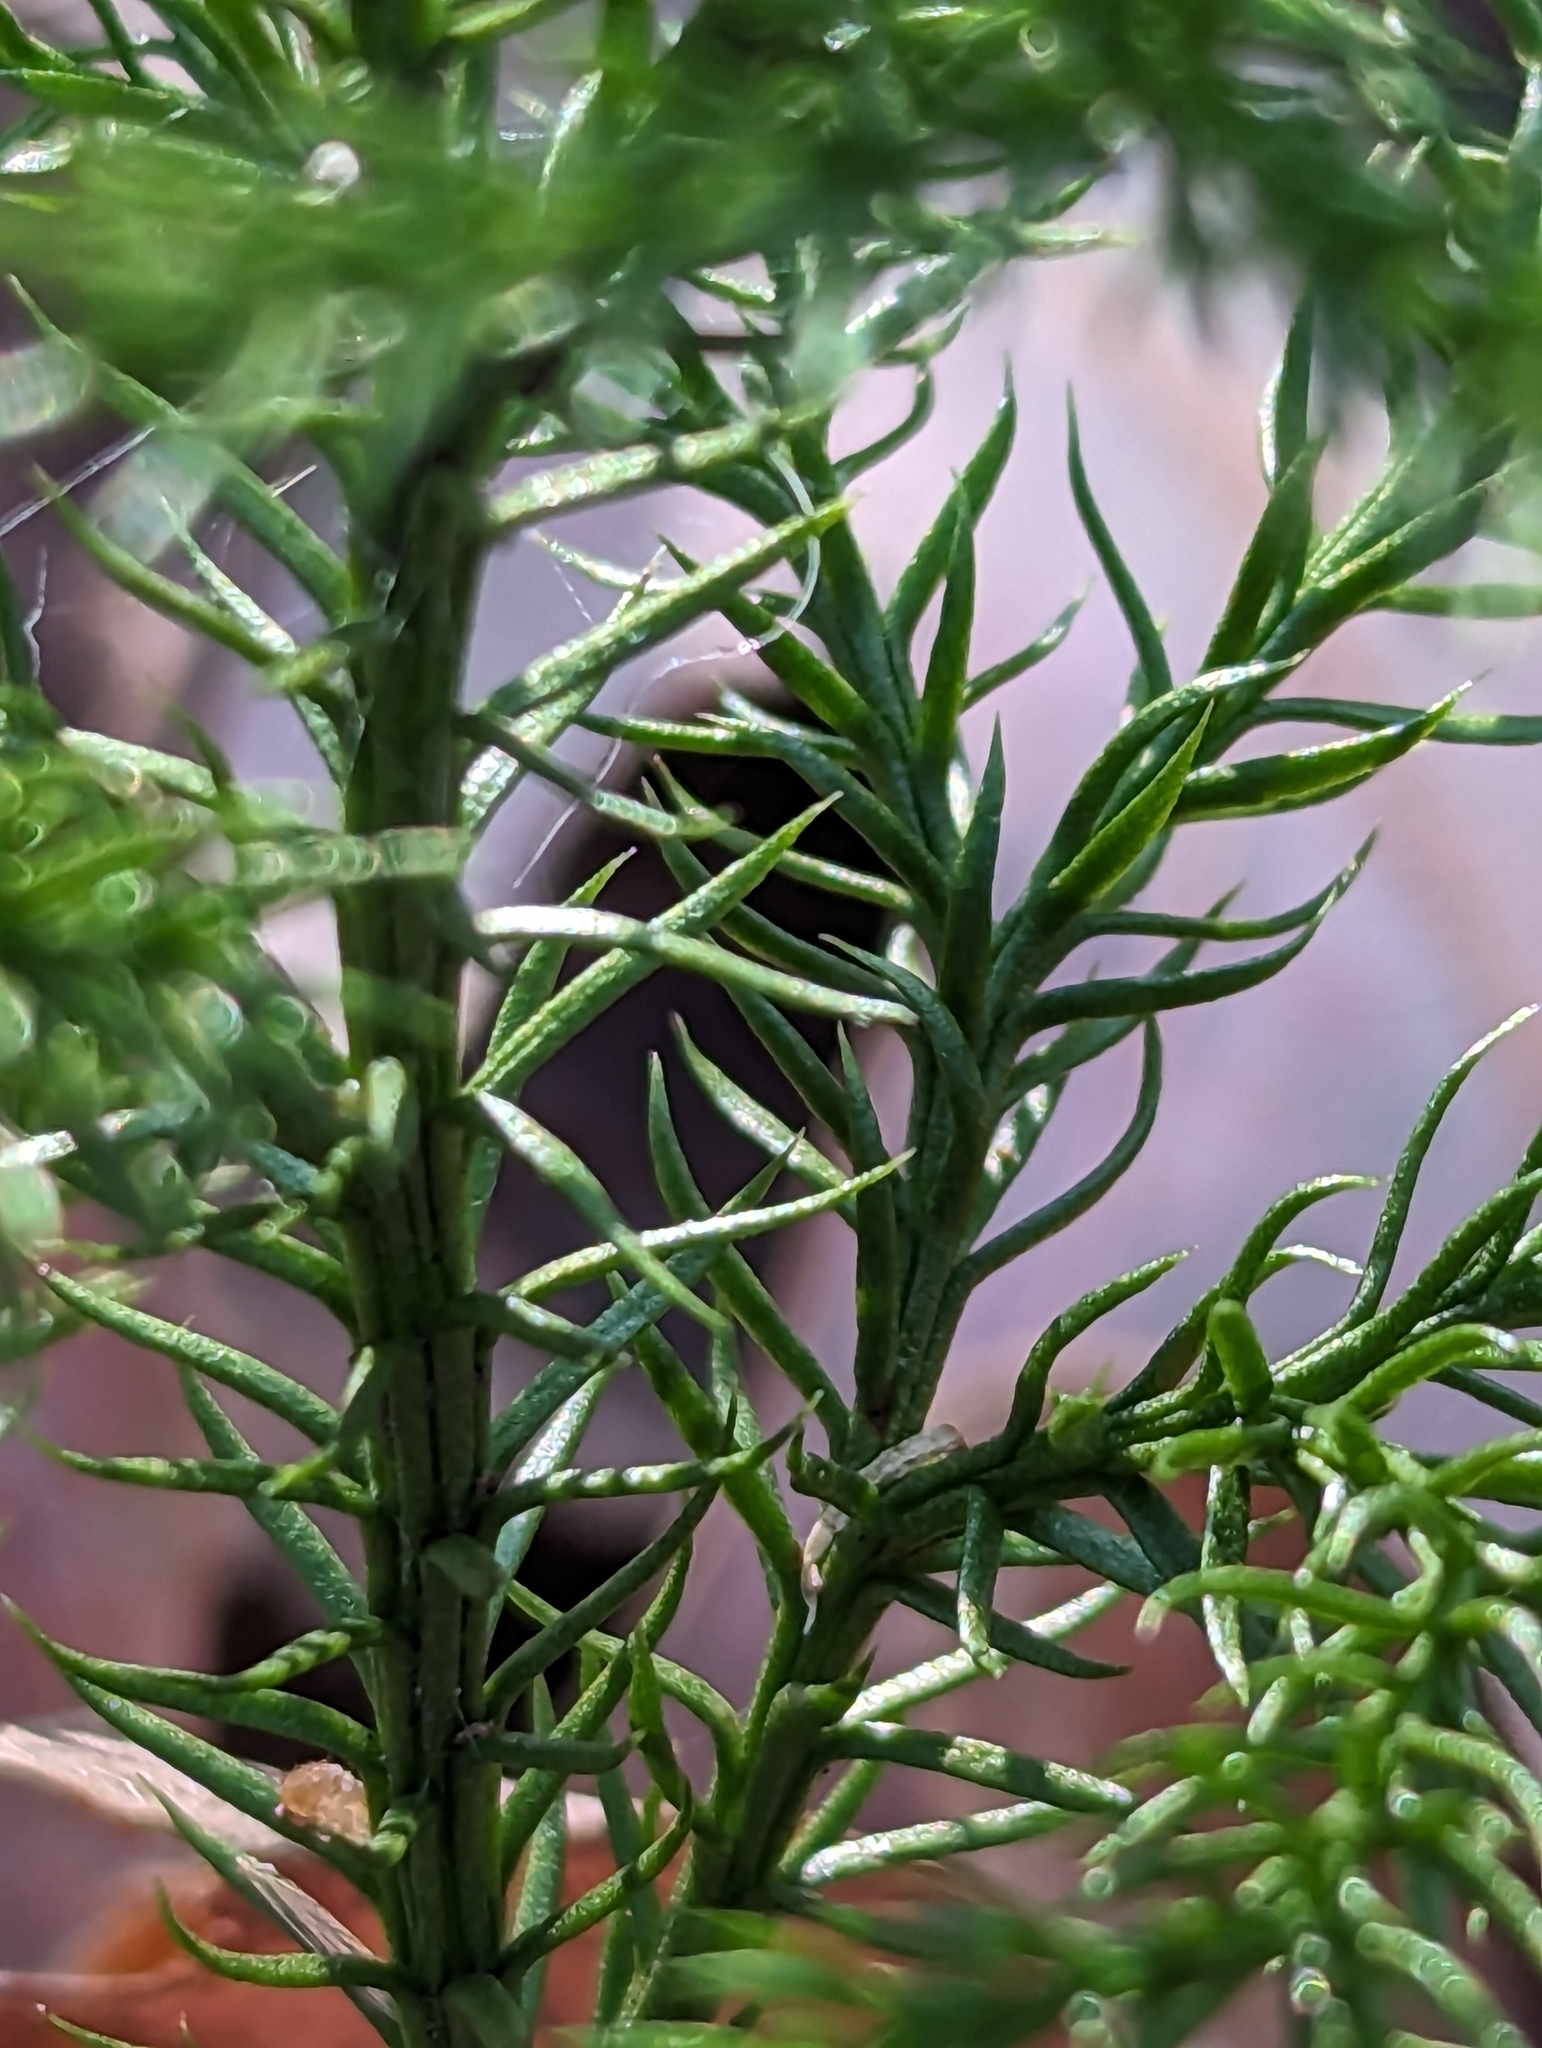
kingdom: Plantae
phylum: Tracheophyta
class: Lycopodiopsida
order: Lycopodiales
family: Lycopodiaceae
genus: Dendrolycopodium
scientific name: Dendrolycopodium dendroideum
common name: Northern tree-clubmoss
